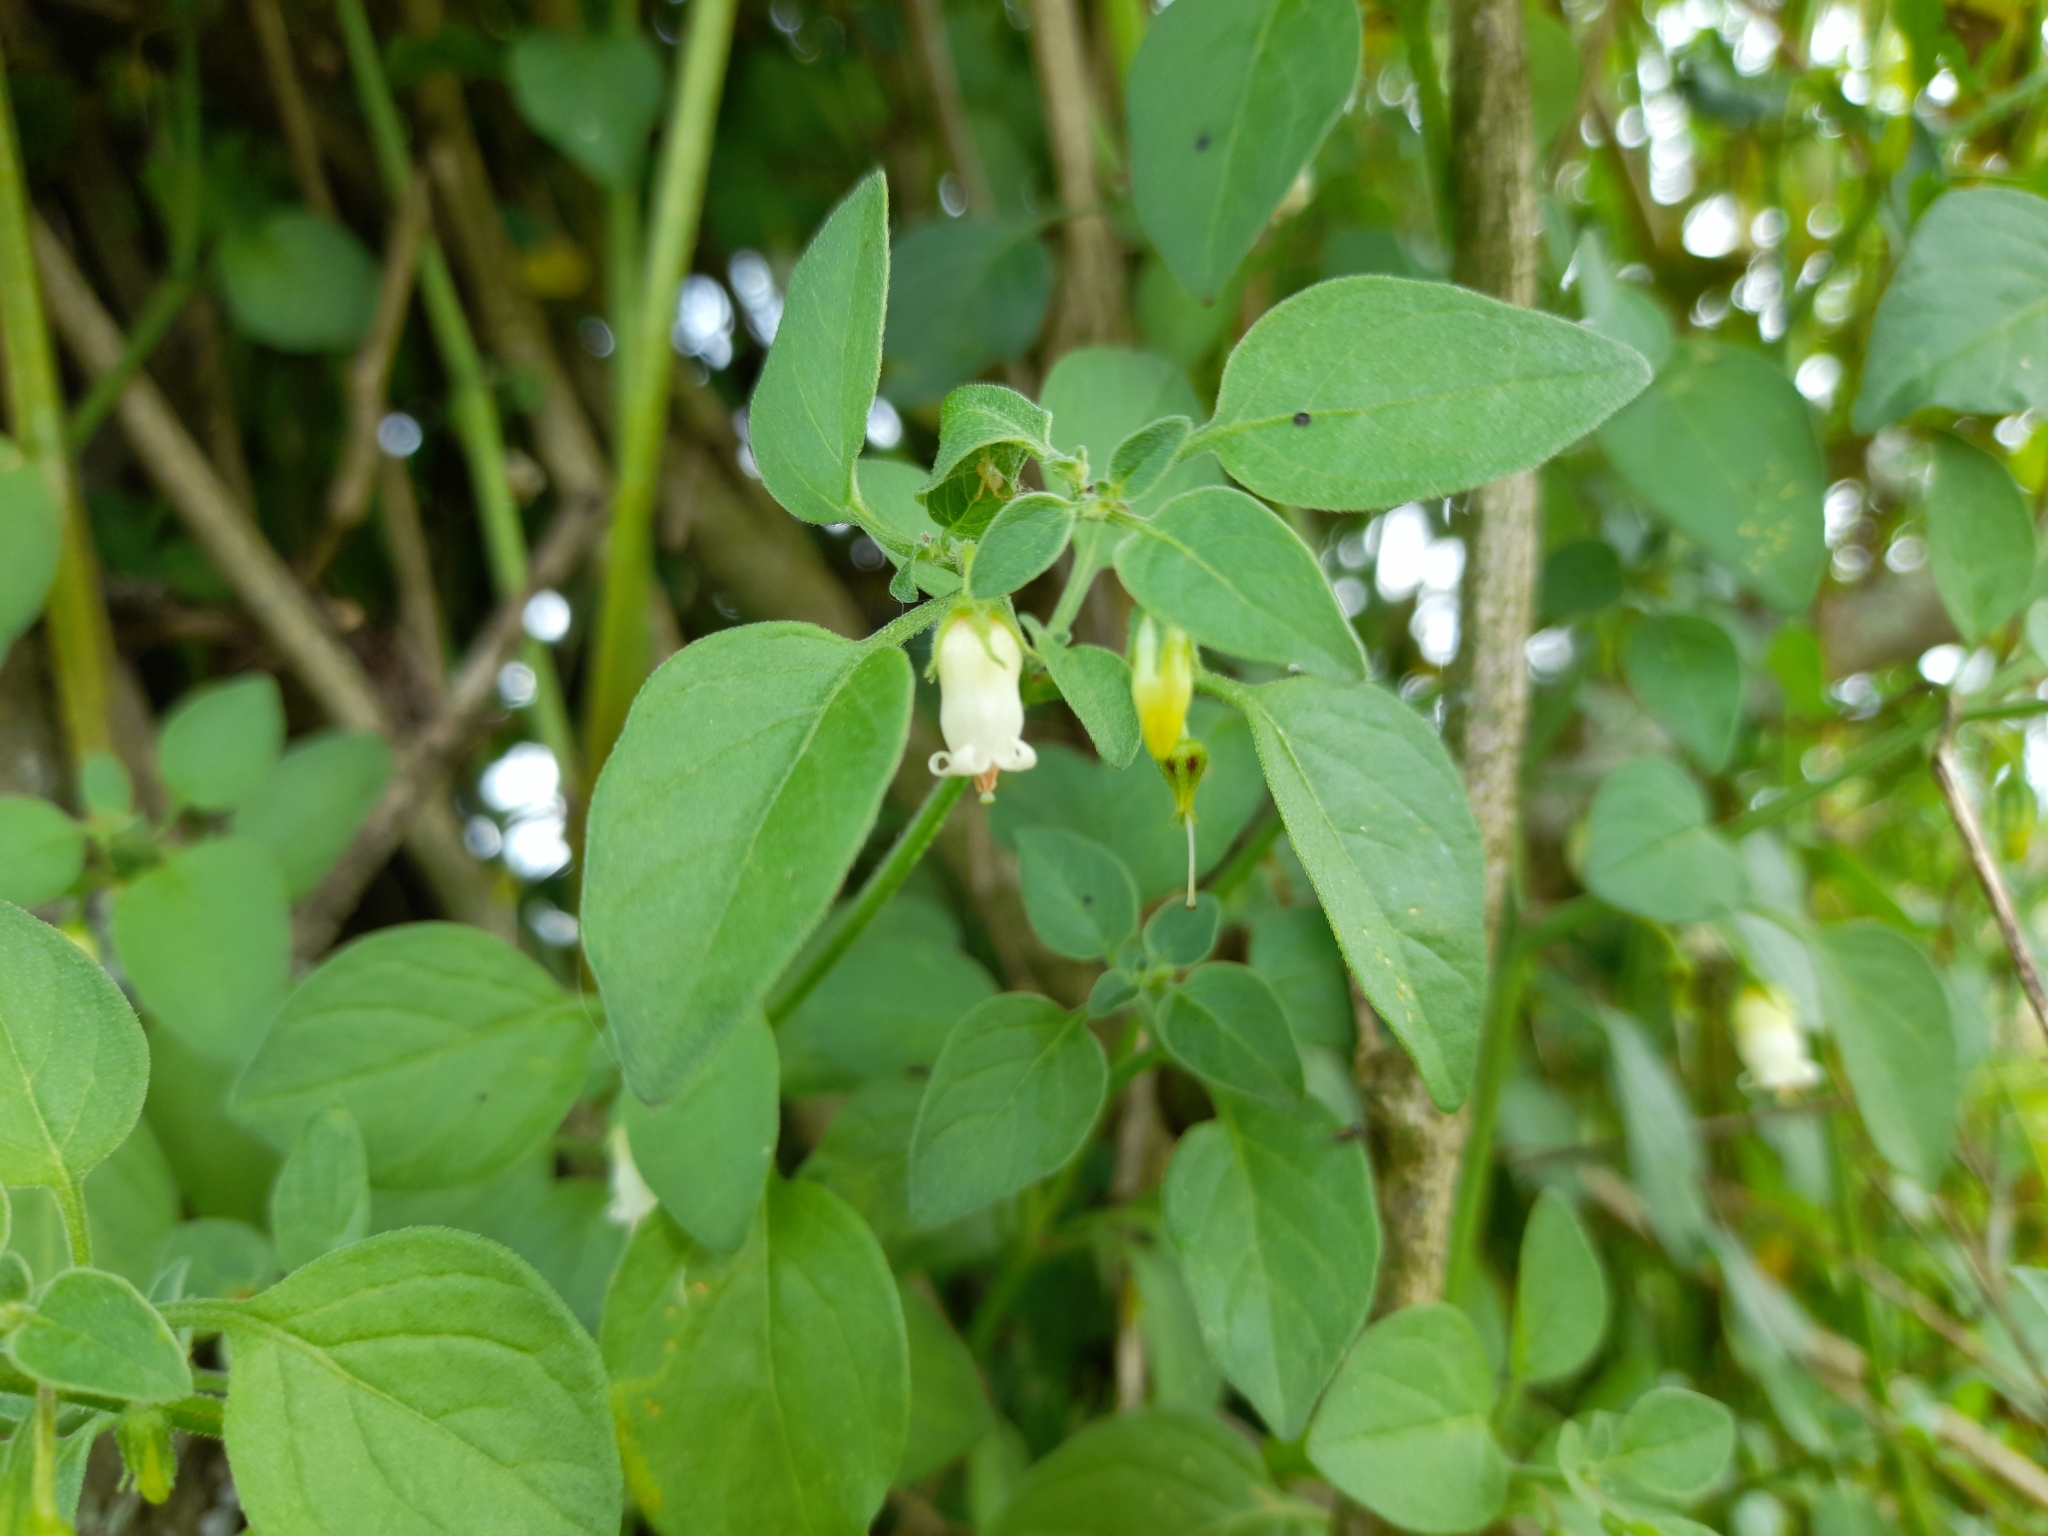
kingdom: Plantae
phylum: Tracheophyta
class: Magnoliopsida
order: Solanales
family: Solanaceae
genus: Salpichroa
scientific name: Salpichroa origanifolia
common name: Lily-of-the-valley-vine
